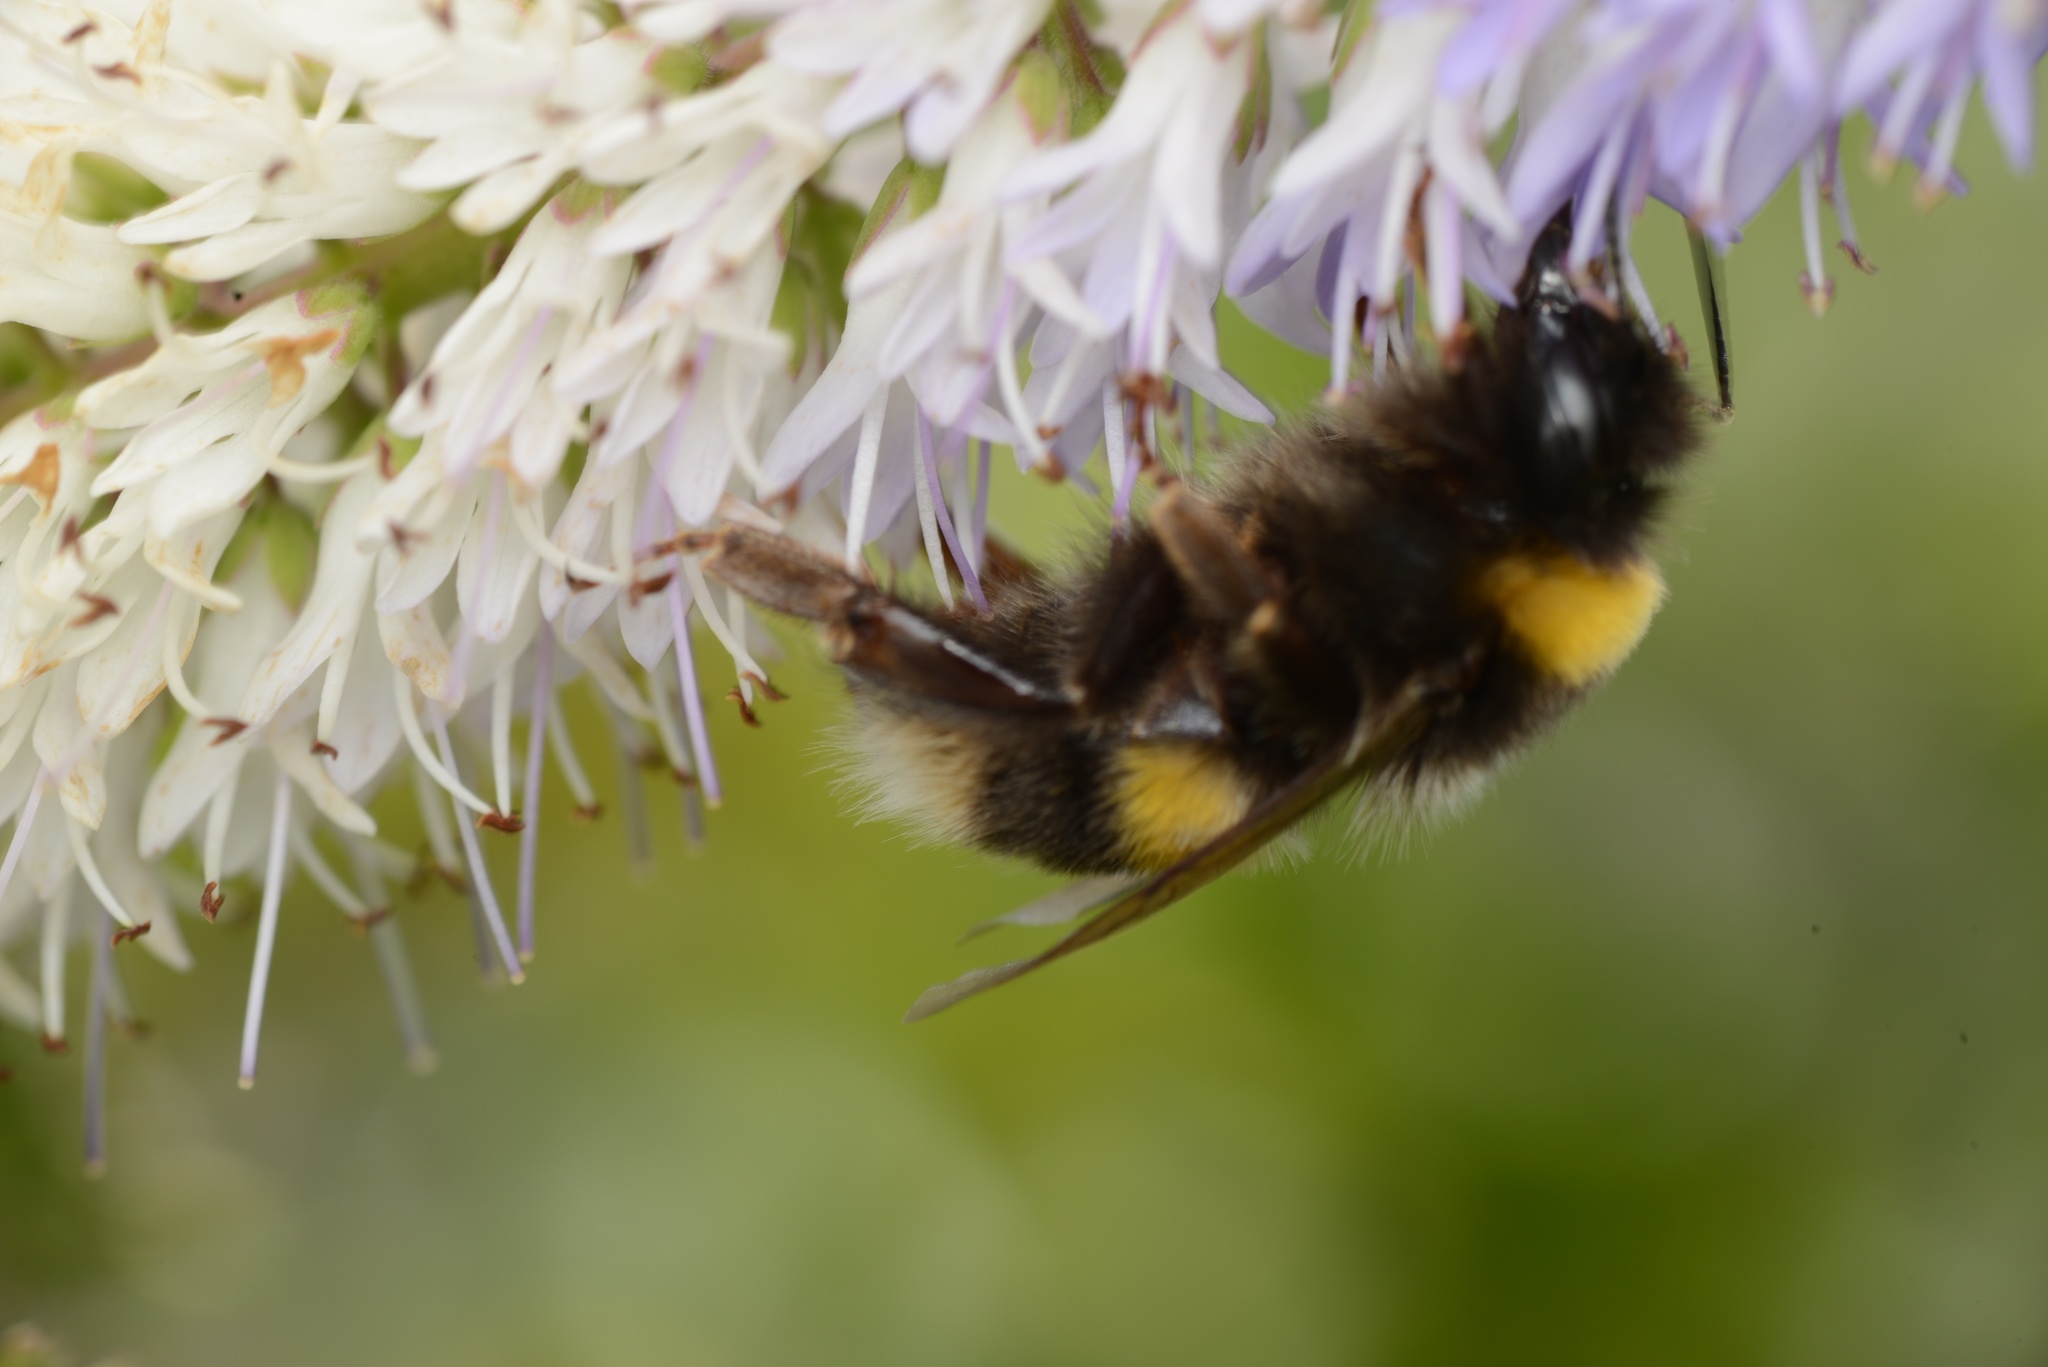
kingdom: Animalia
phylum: Arthropoda
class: Insecta
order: Hymenoptera
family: Apidae
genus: Bombus
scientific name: Bombus terrestris
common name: Buff-tailed bumblebee
